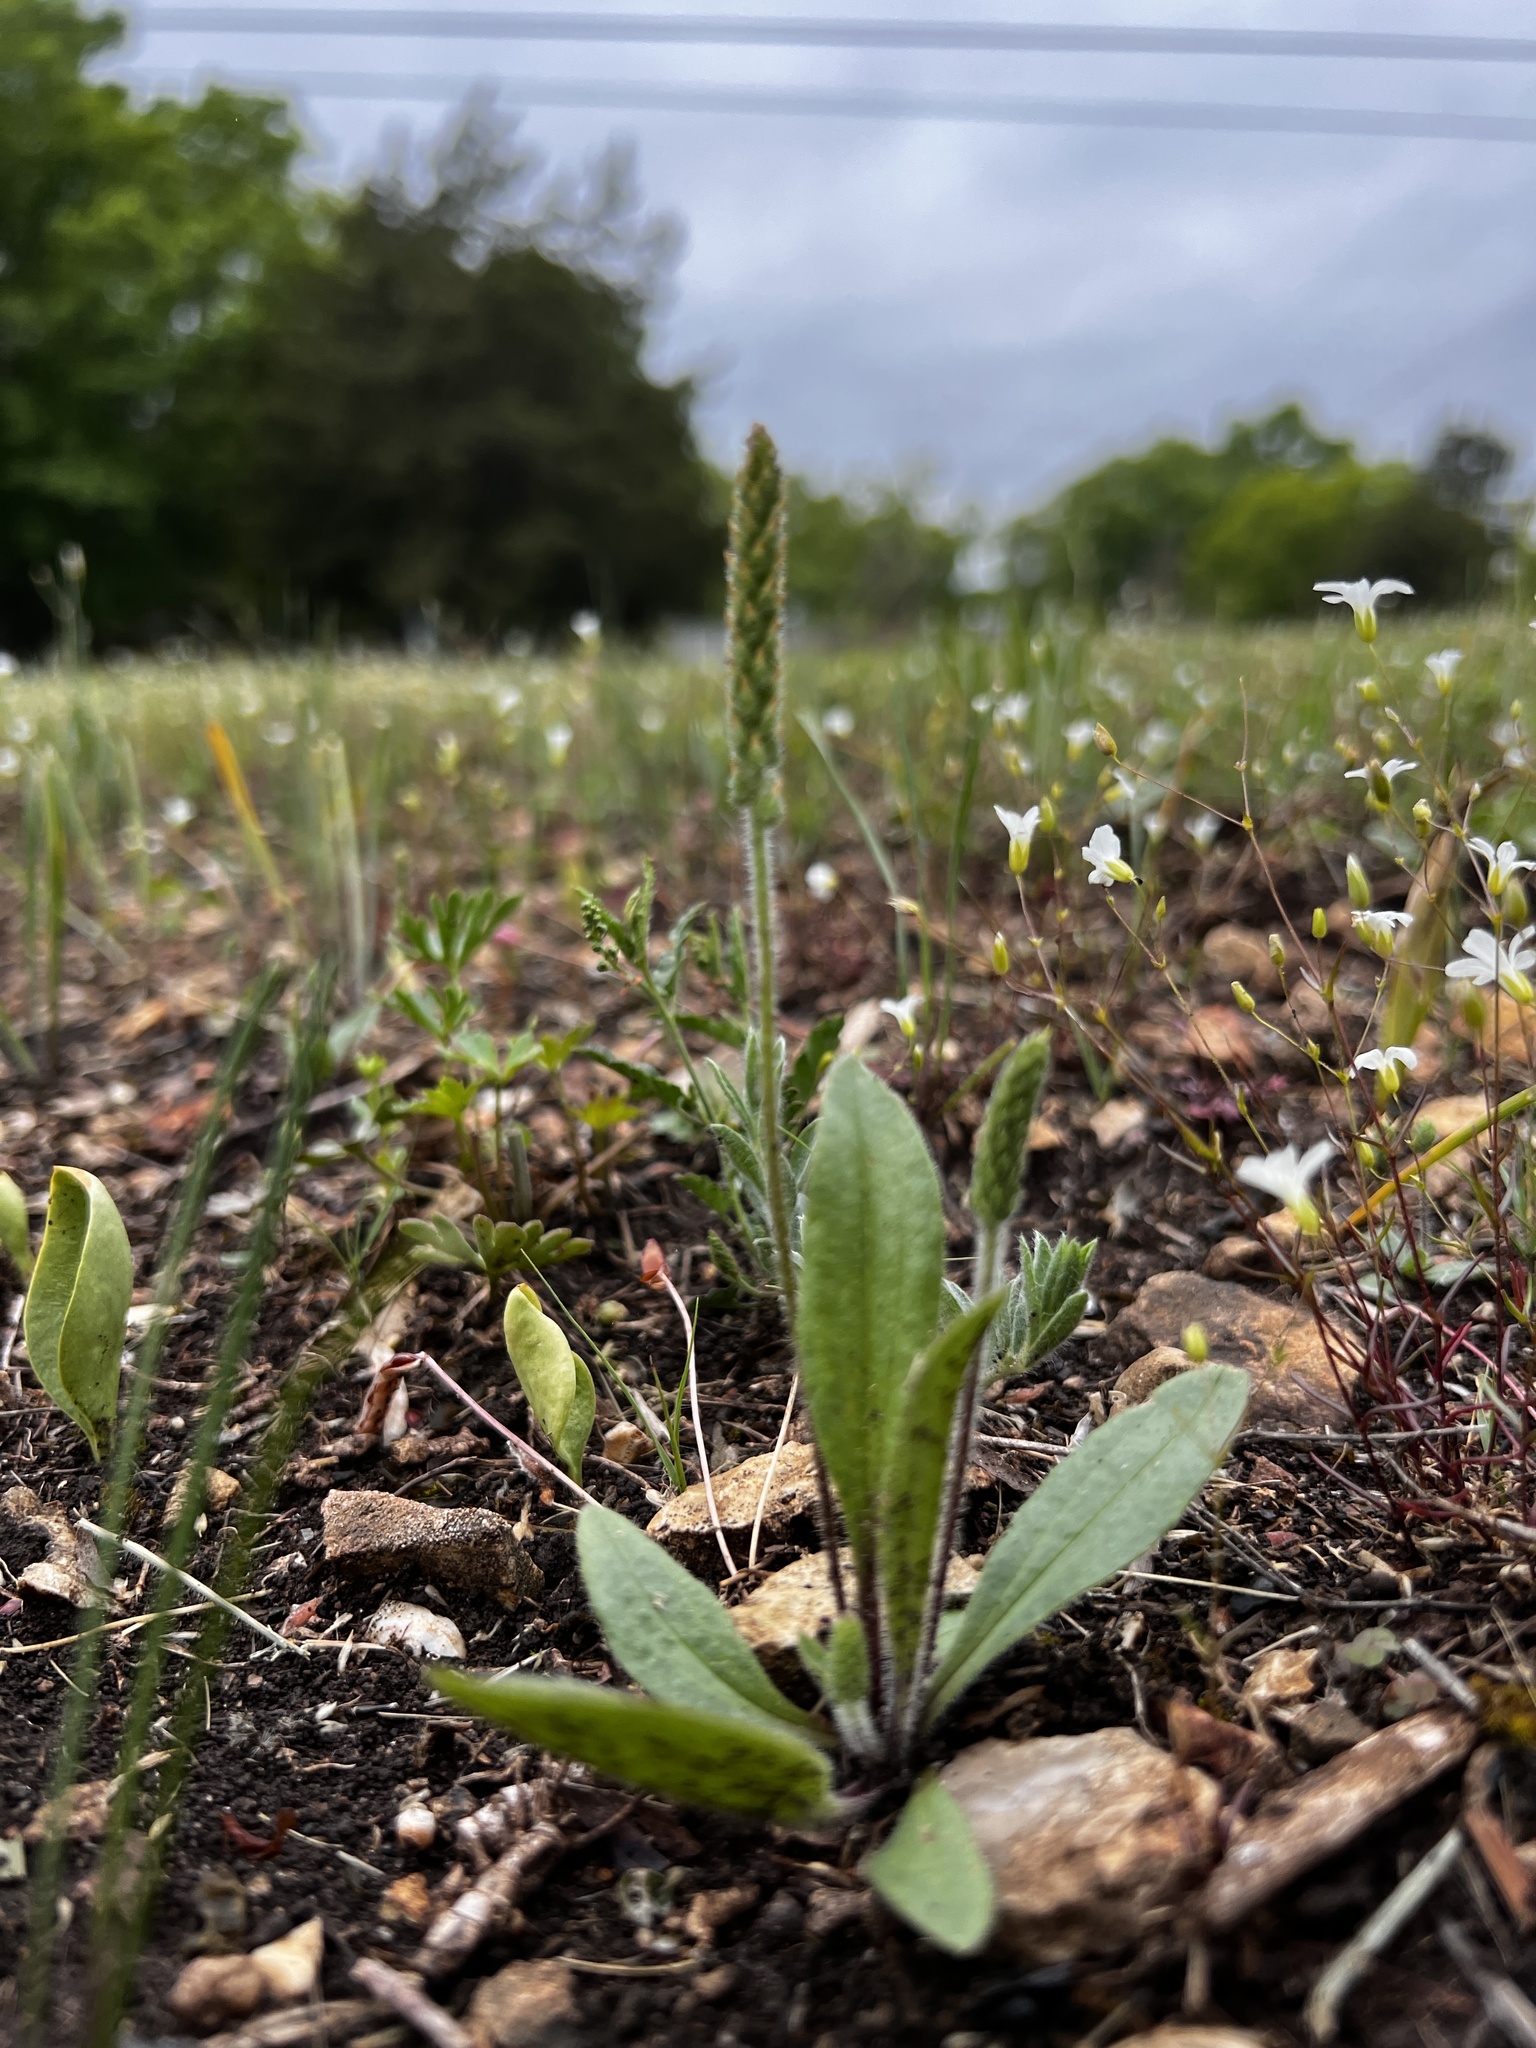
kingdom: Plantae
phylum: Tracheophyta
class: Magnoliopsida
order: Lamiales
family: Plantaginaceae
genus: Plantago
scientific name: Plantago virginica
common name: Hoary plantain
